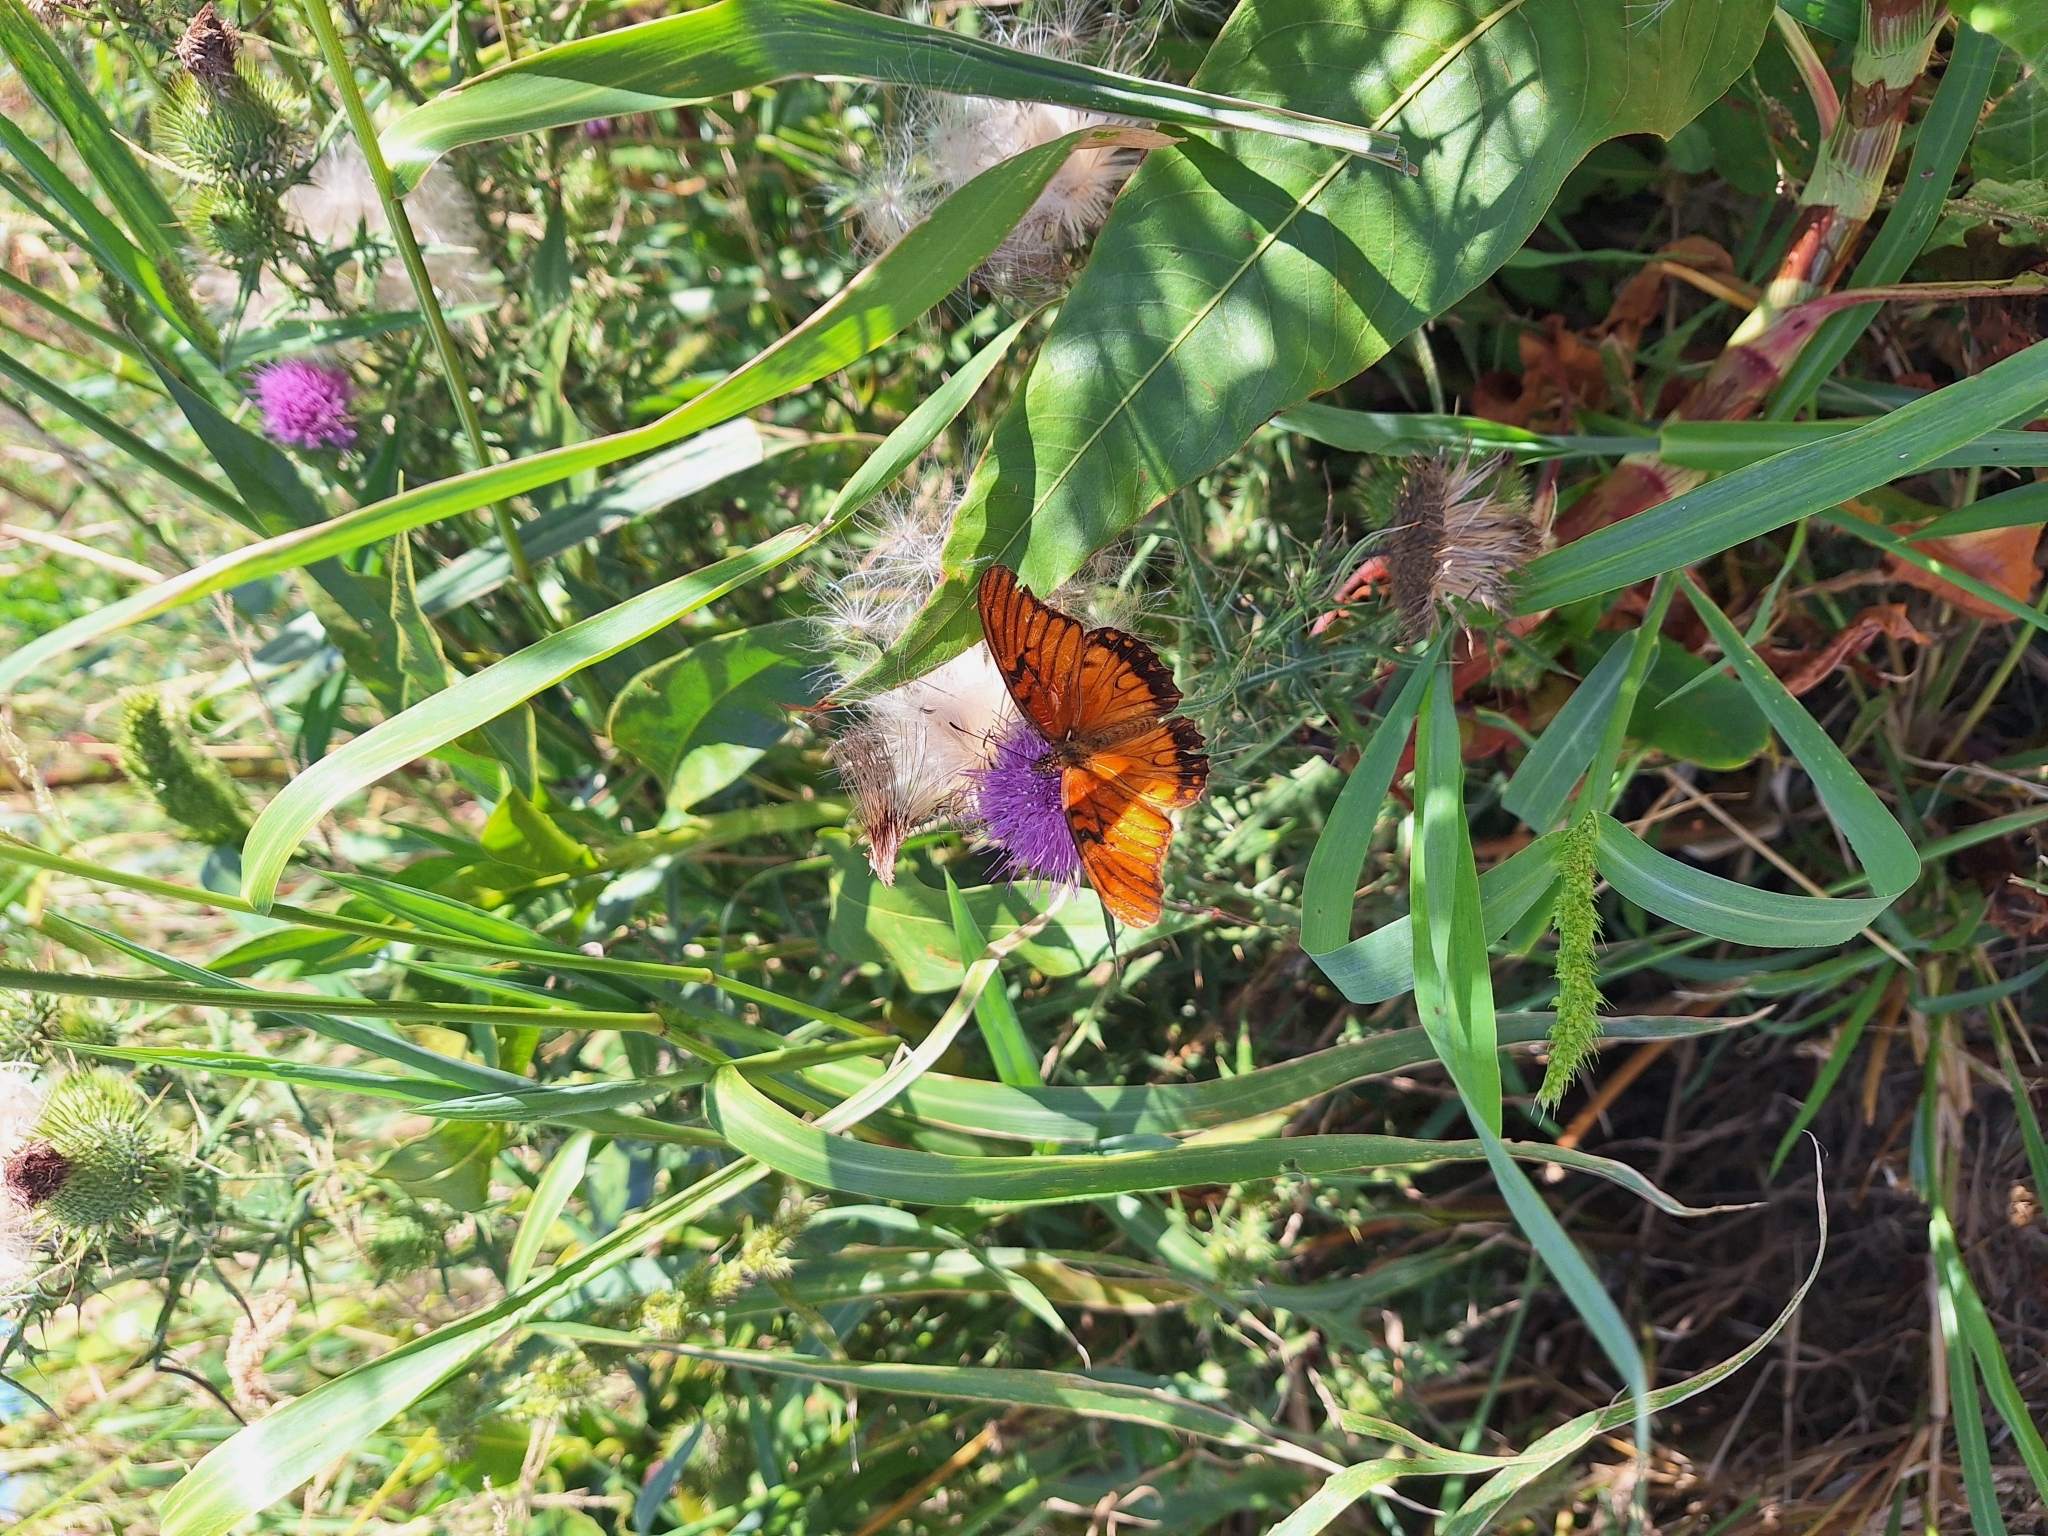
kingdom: Animalia
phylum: Arthropoda
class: Insecta
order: Lepidoptera
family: Nymphalidae
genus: Dione
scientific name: Dione moneta
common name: Mexican silverspot
